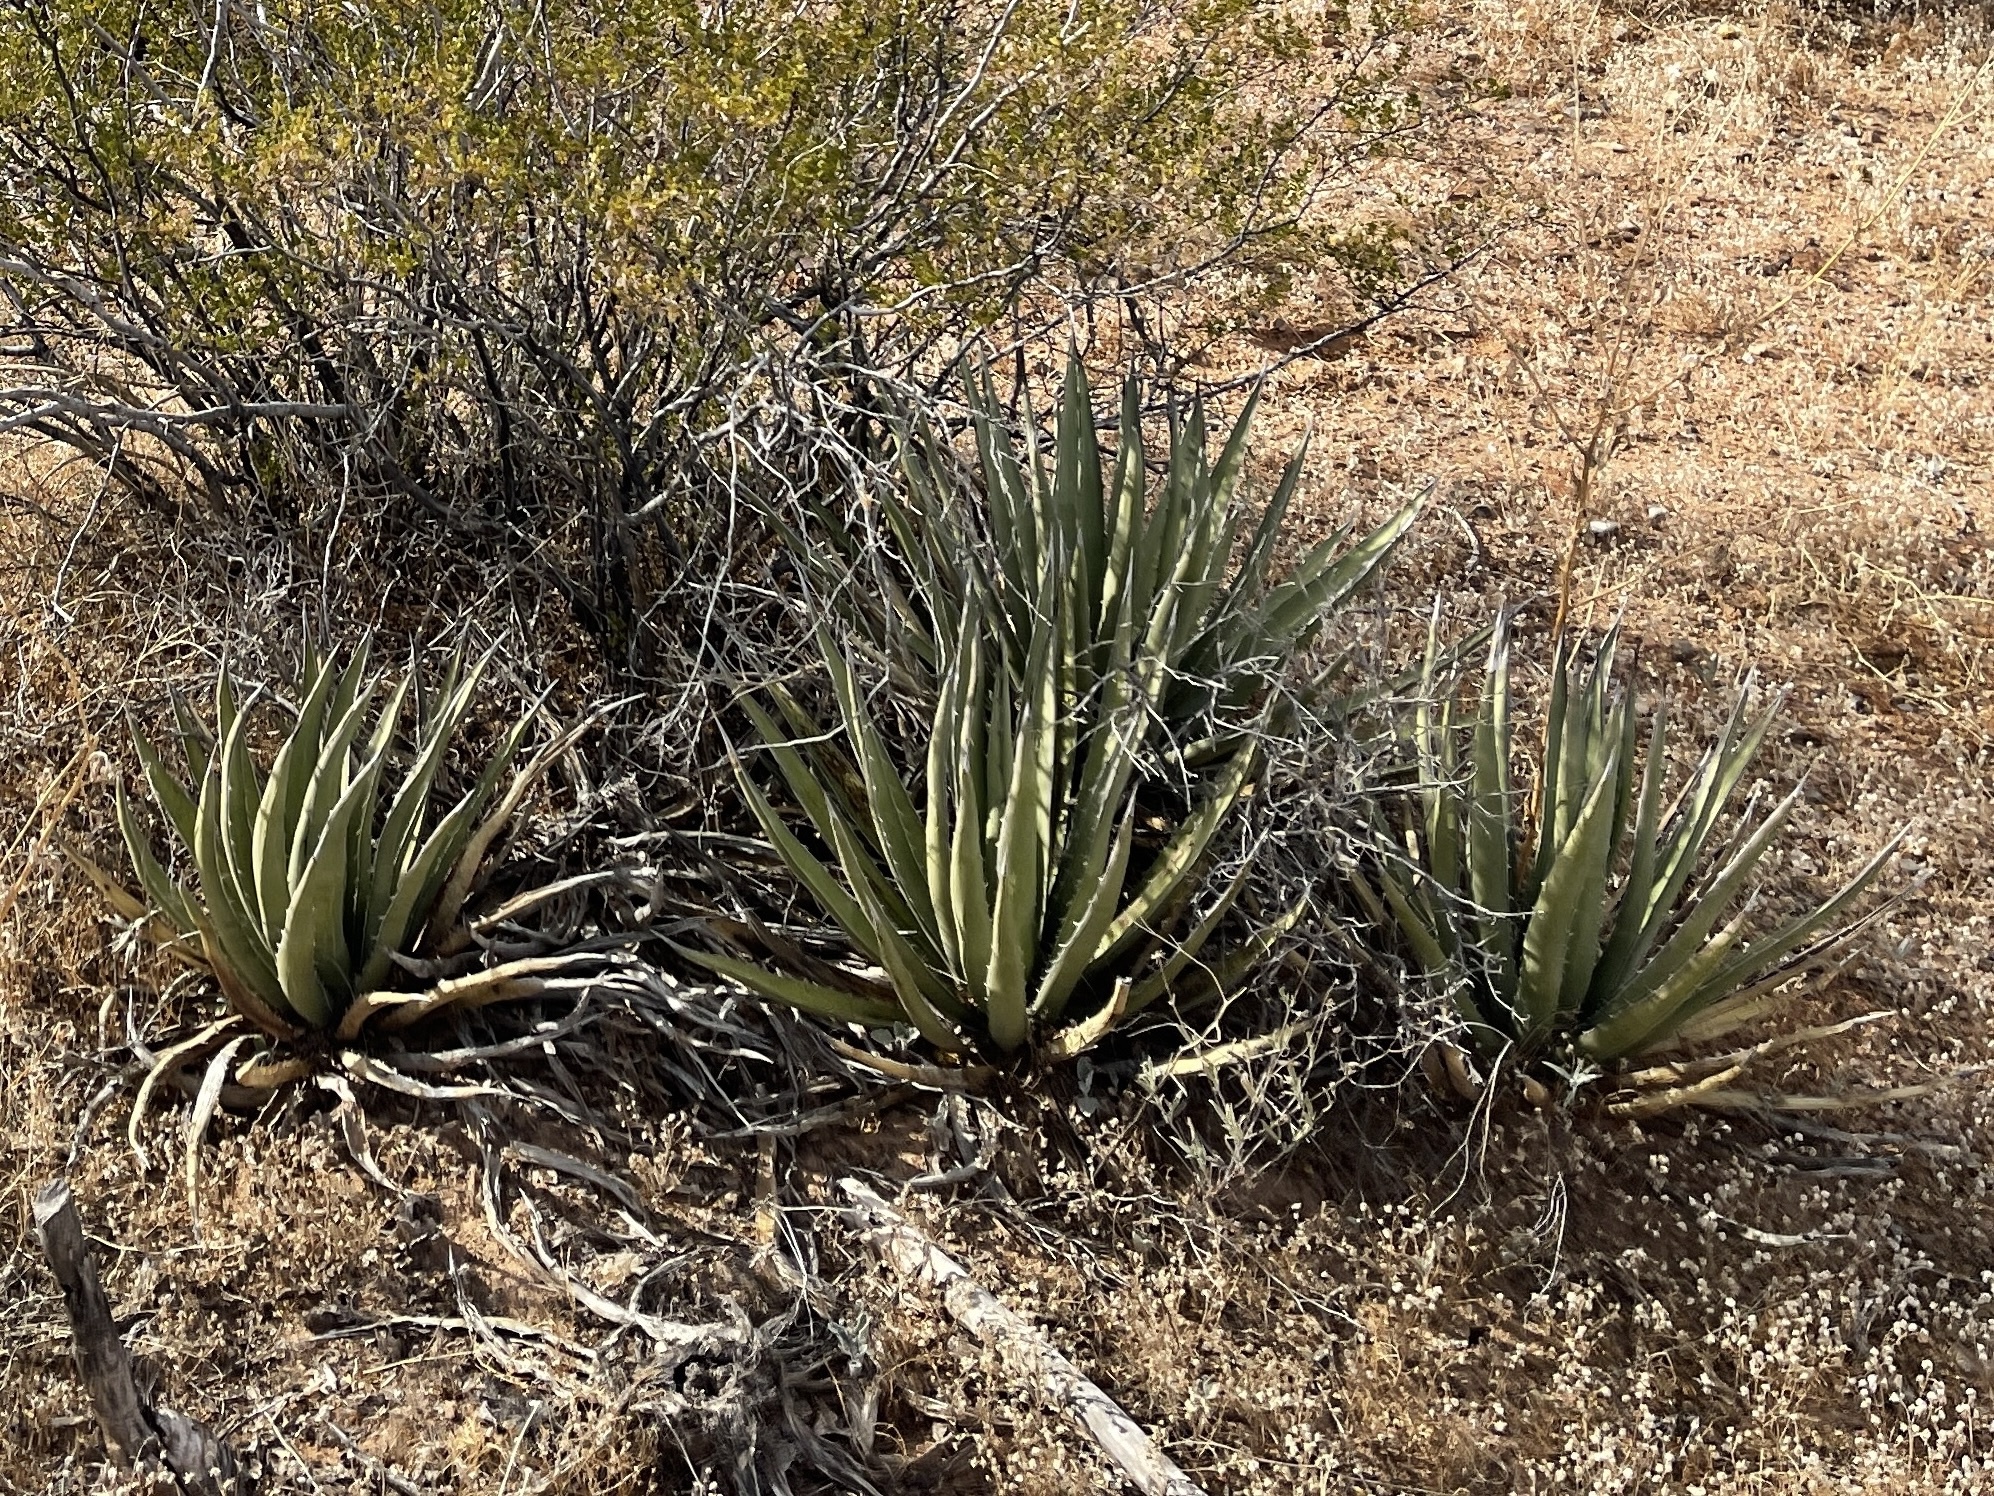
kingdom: Plantae
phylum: Tracheophyta
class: Liliopsida
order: Asparagales
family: Asparagaceae
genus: Agave
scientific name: Agave lechuguilla
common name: Lecheguilla agave
